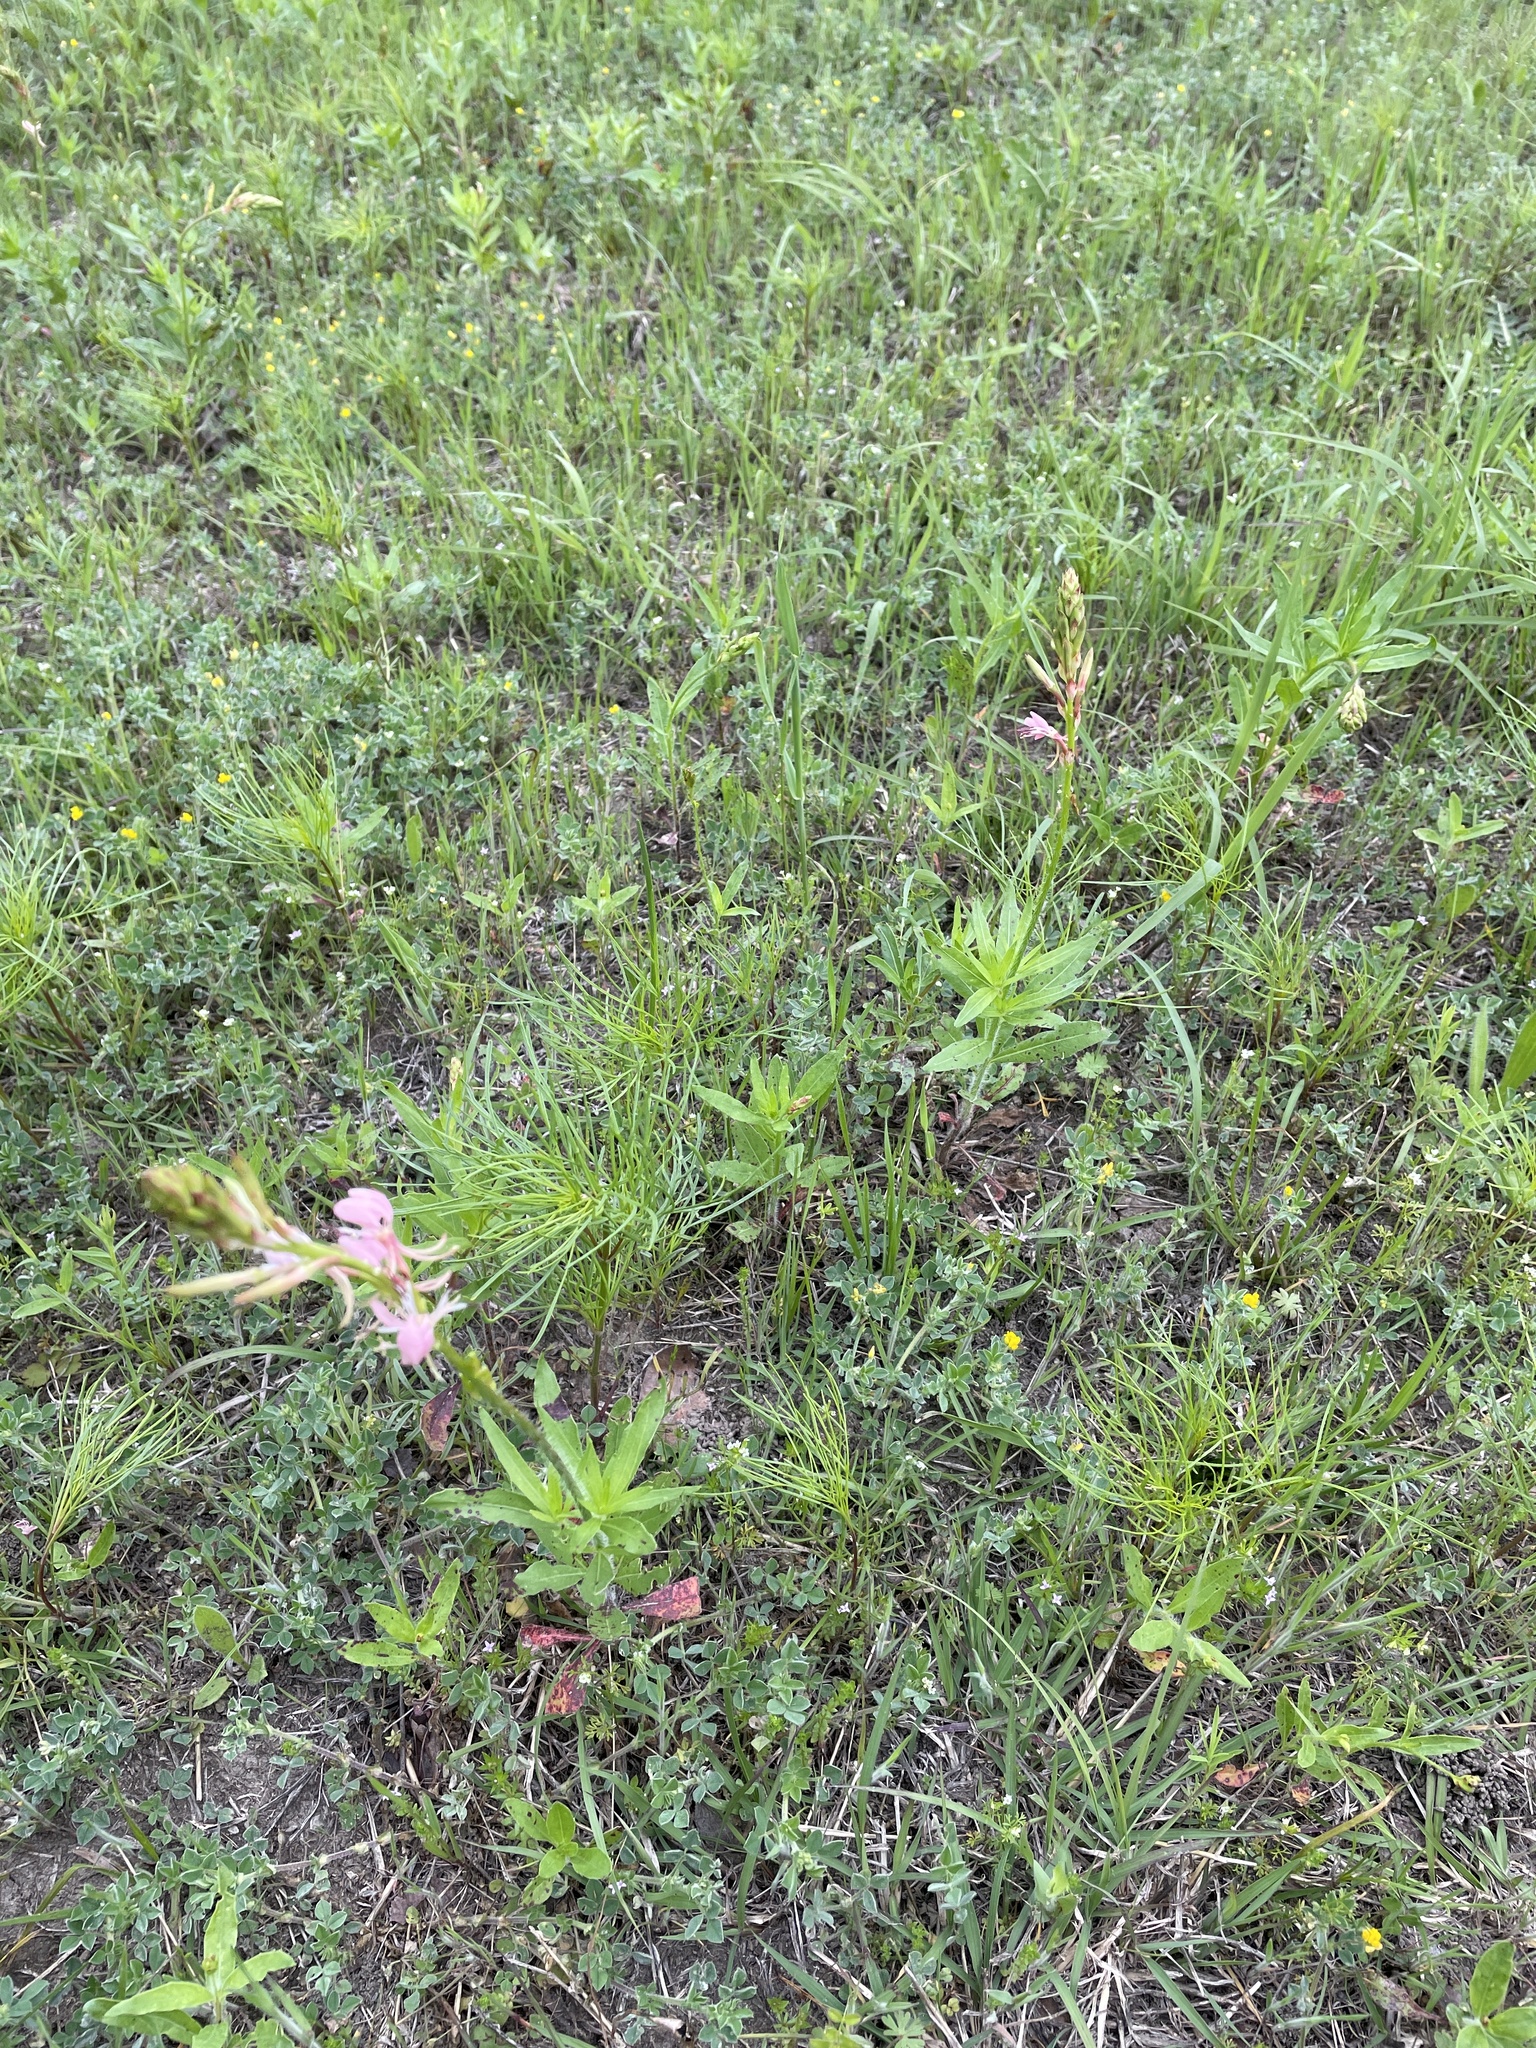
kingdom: Plantae
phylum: Tracheophyta
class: Magnoliopsida
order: Myrtales
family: Onagraceae
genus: Oenothera
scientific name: Oenothera suffulta
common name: Kisses
